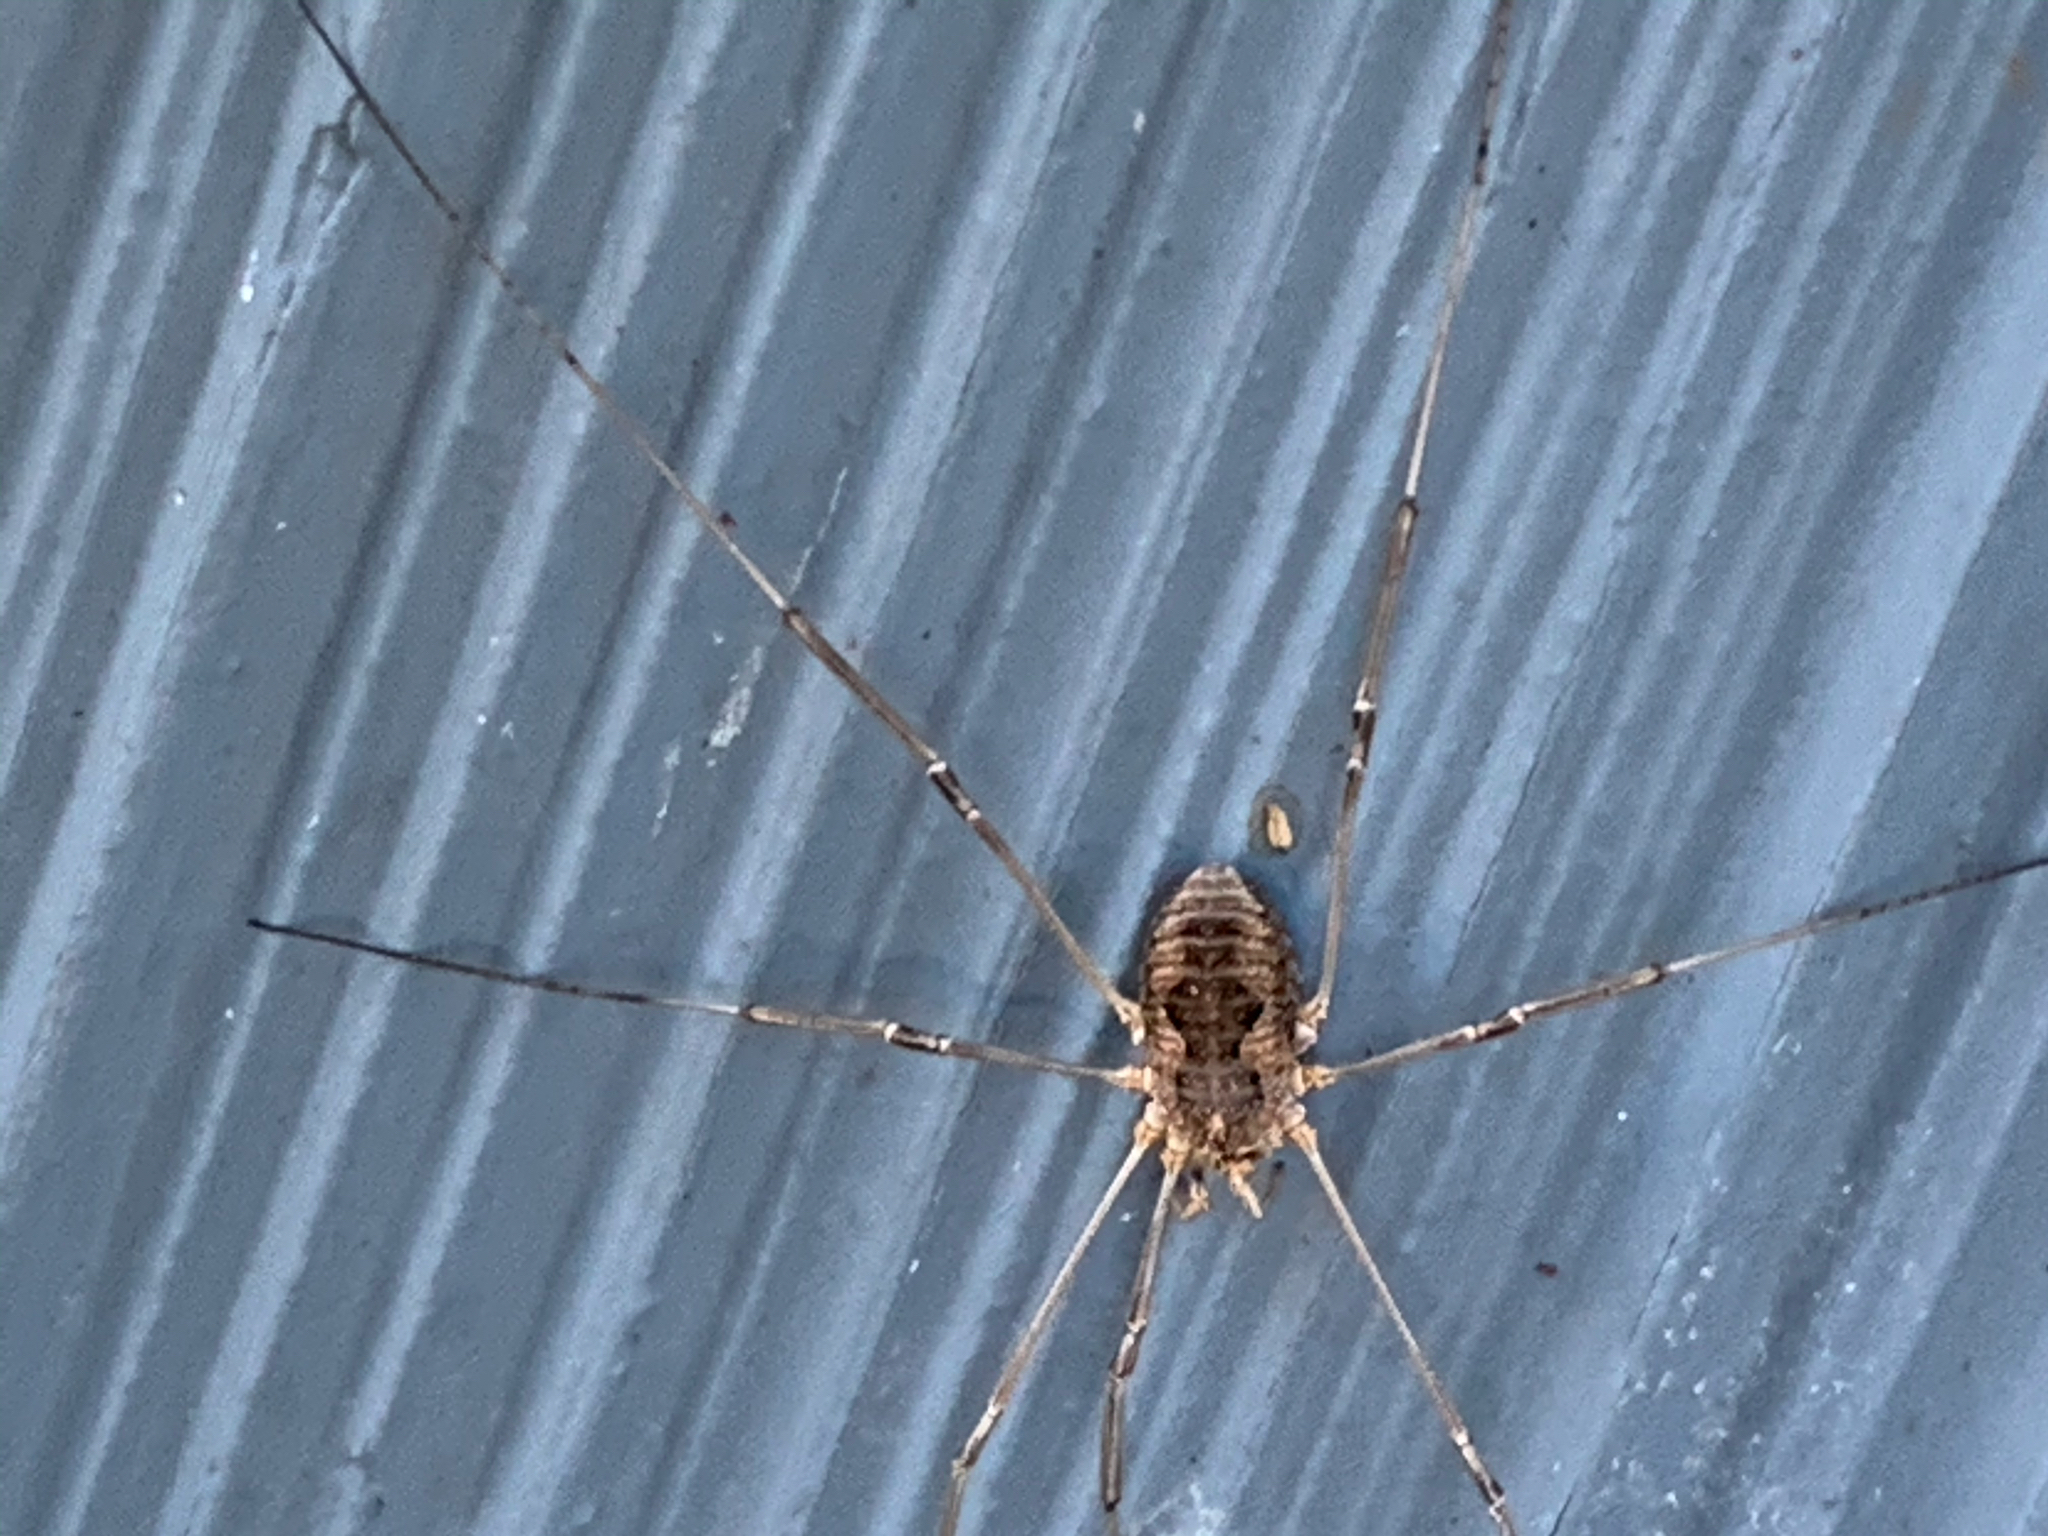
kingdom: Animalia
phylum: Arthropoda
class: Arachnida
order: Opiliones
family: Phalangiidae
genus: Phalangium
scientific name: Phalangium opilio
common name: Daddy longleg
